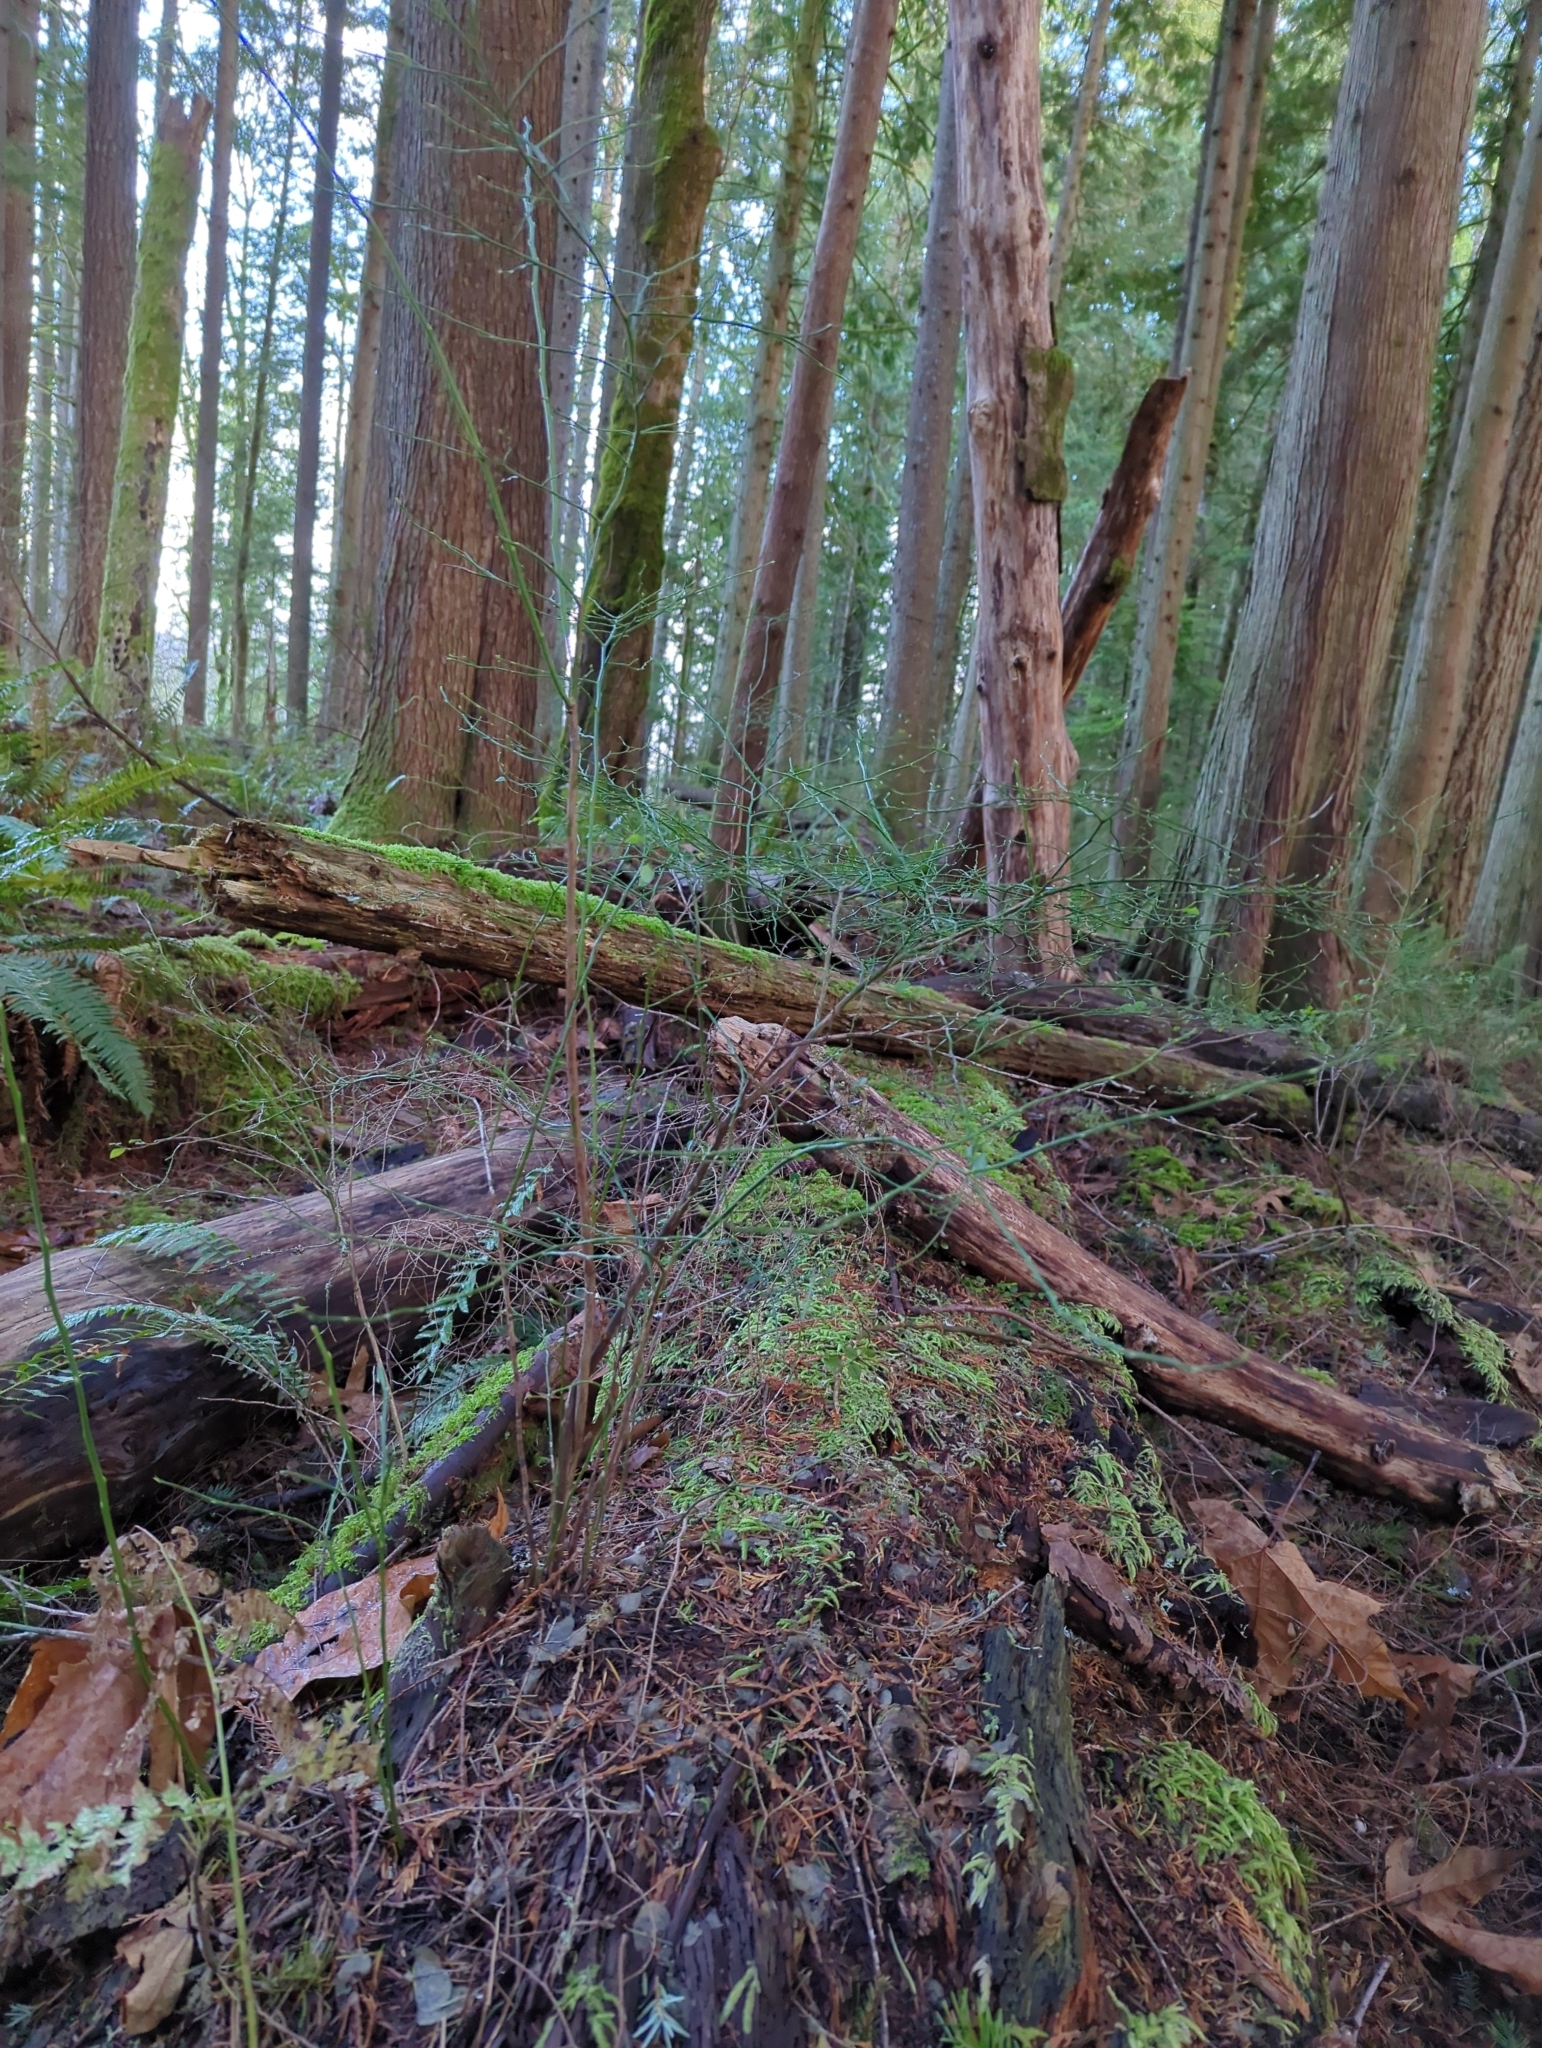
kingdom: Plantae
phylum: Tracheophyta
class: Magnoliopsida
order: Ericales
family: Ericaceae
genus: Vaccinium
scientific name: Vaccinium parvifolium
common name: Red-huckleberry
